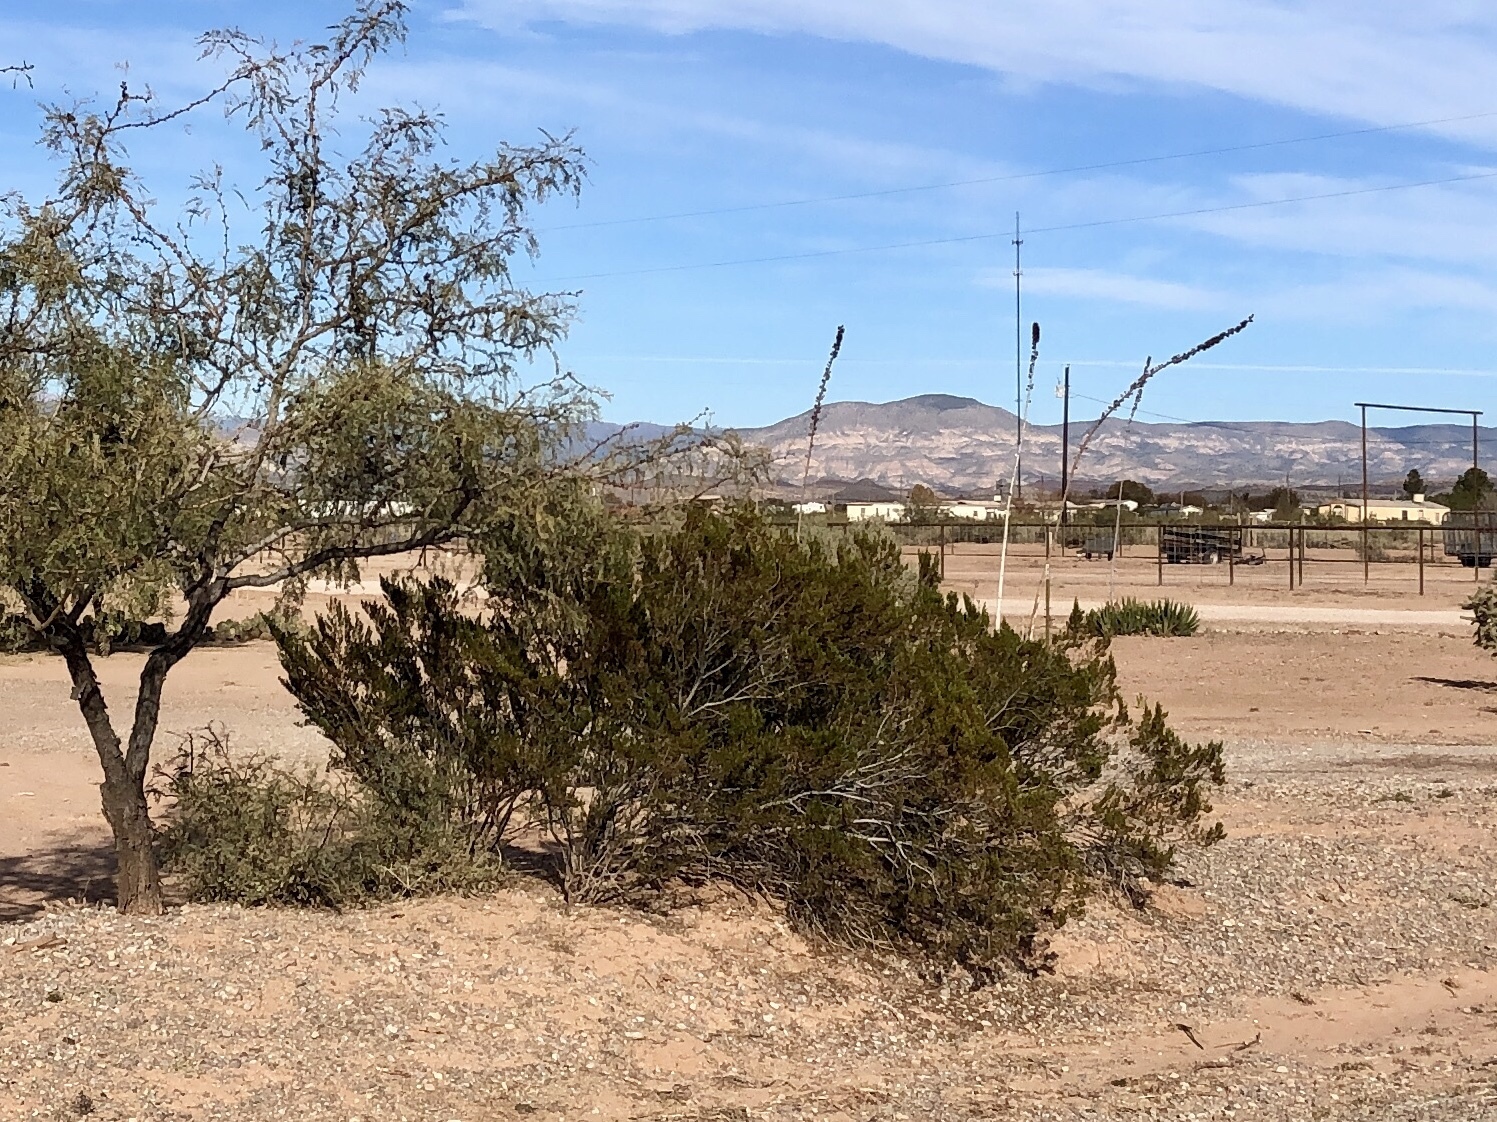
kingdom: Plantae
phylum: Tracheophyta
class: Magnoliopsida
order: Zygophyllales
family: Zygophyllaceae
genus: Larrea
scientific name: Larrea tridentata
